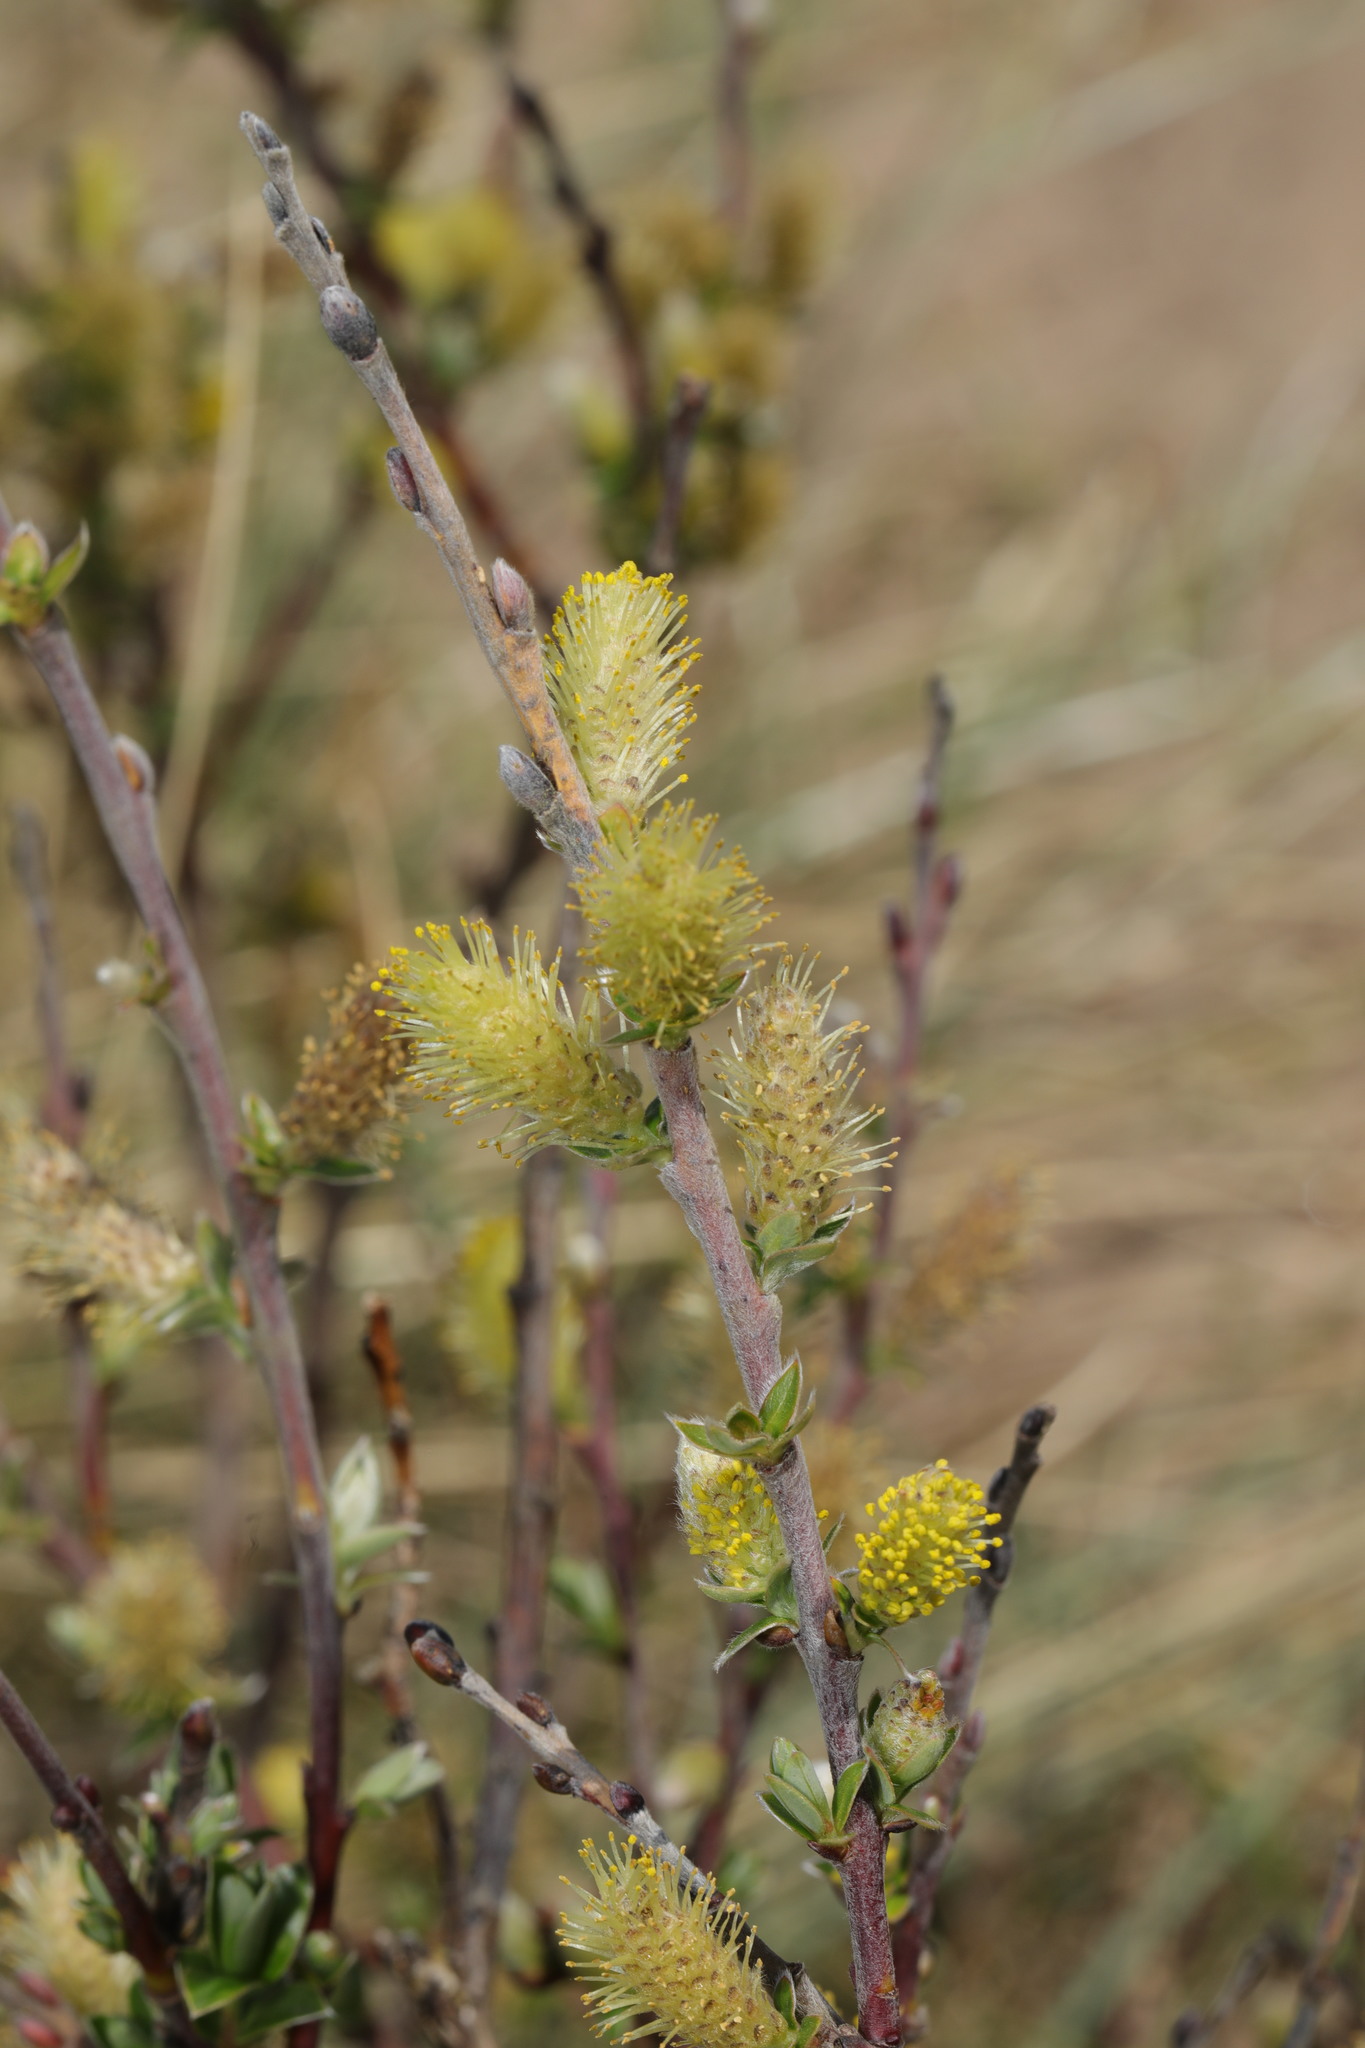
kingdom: Plantae
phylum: Tracheophyta
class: Magnoliopsida
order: Malpighiales
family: Salicaceae
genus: Salix
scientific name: Salix repens
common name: Creeping willow
